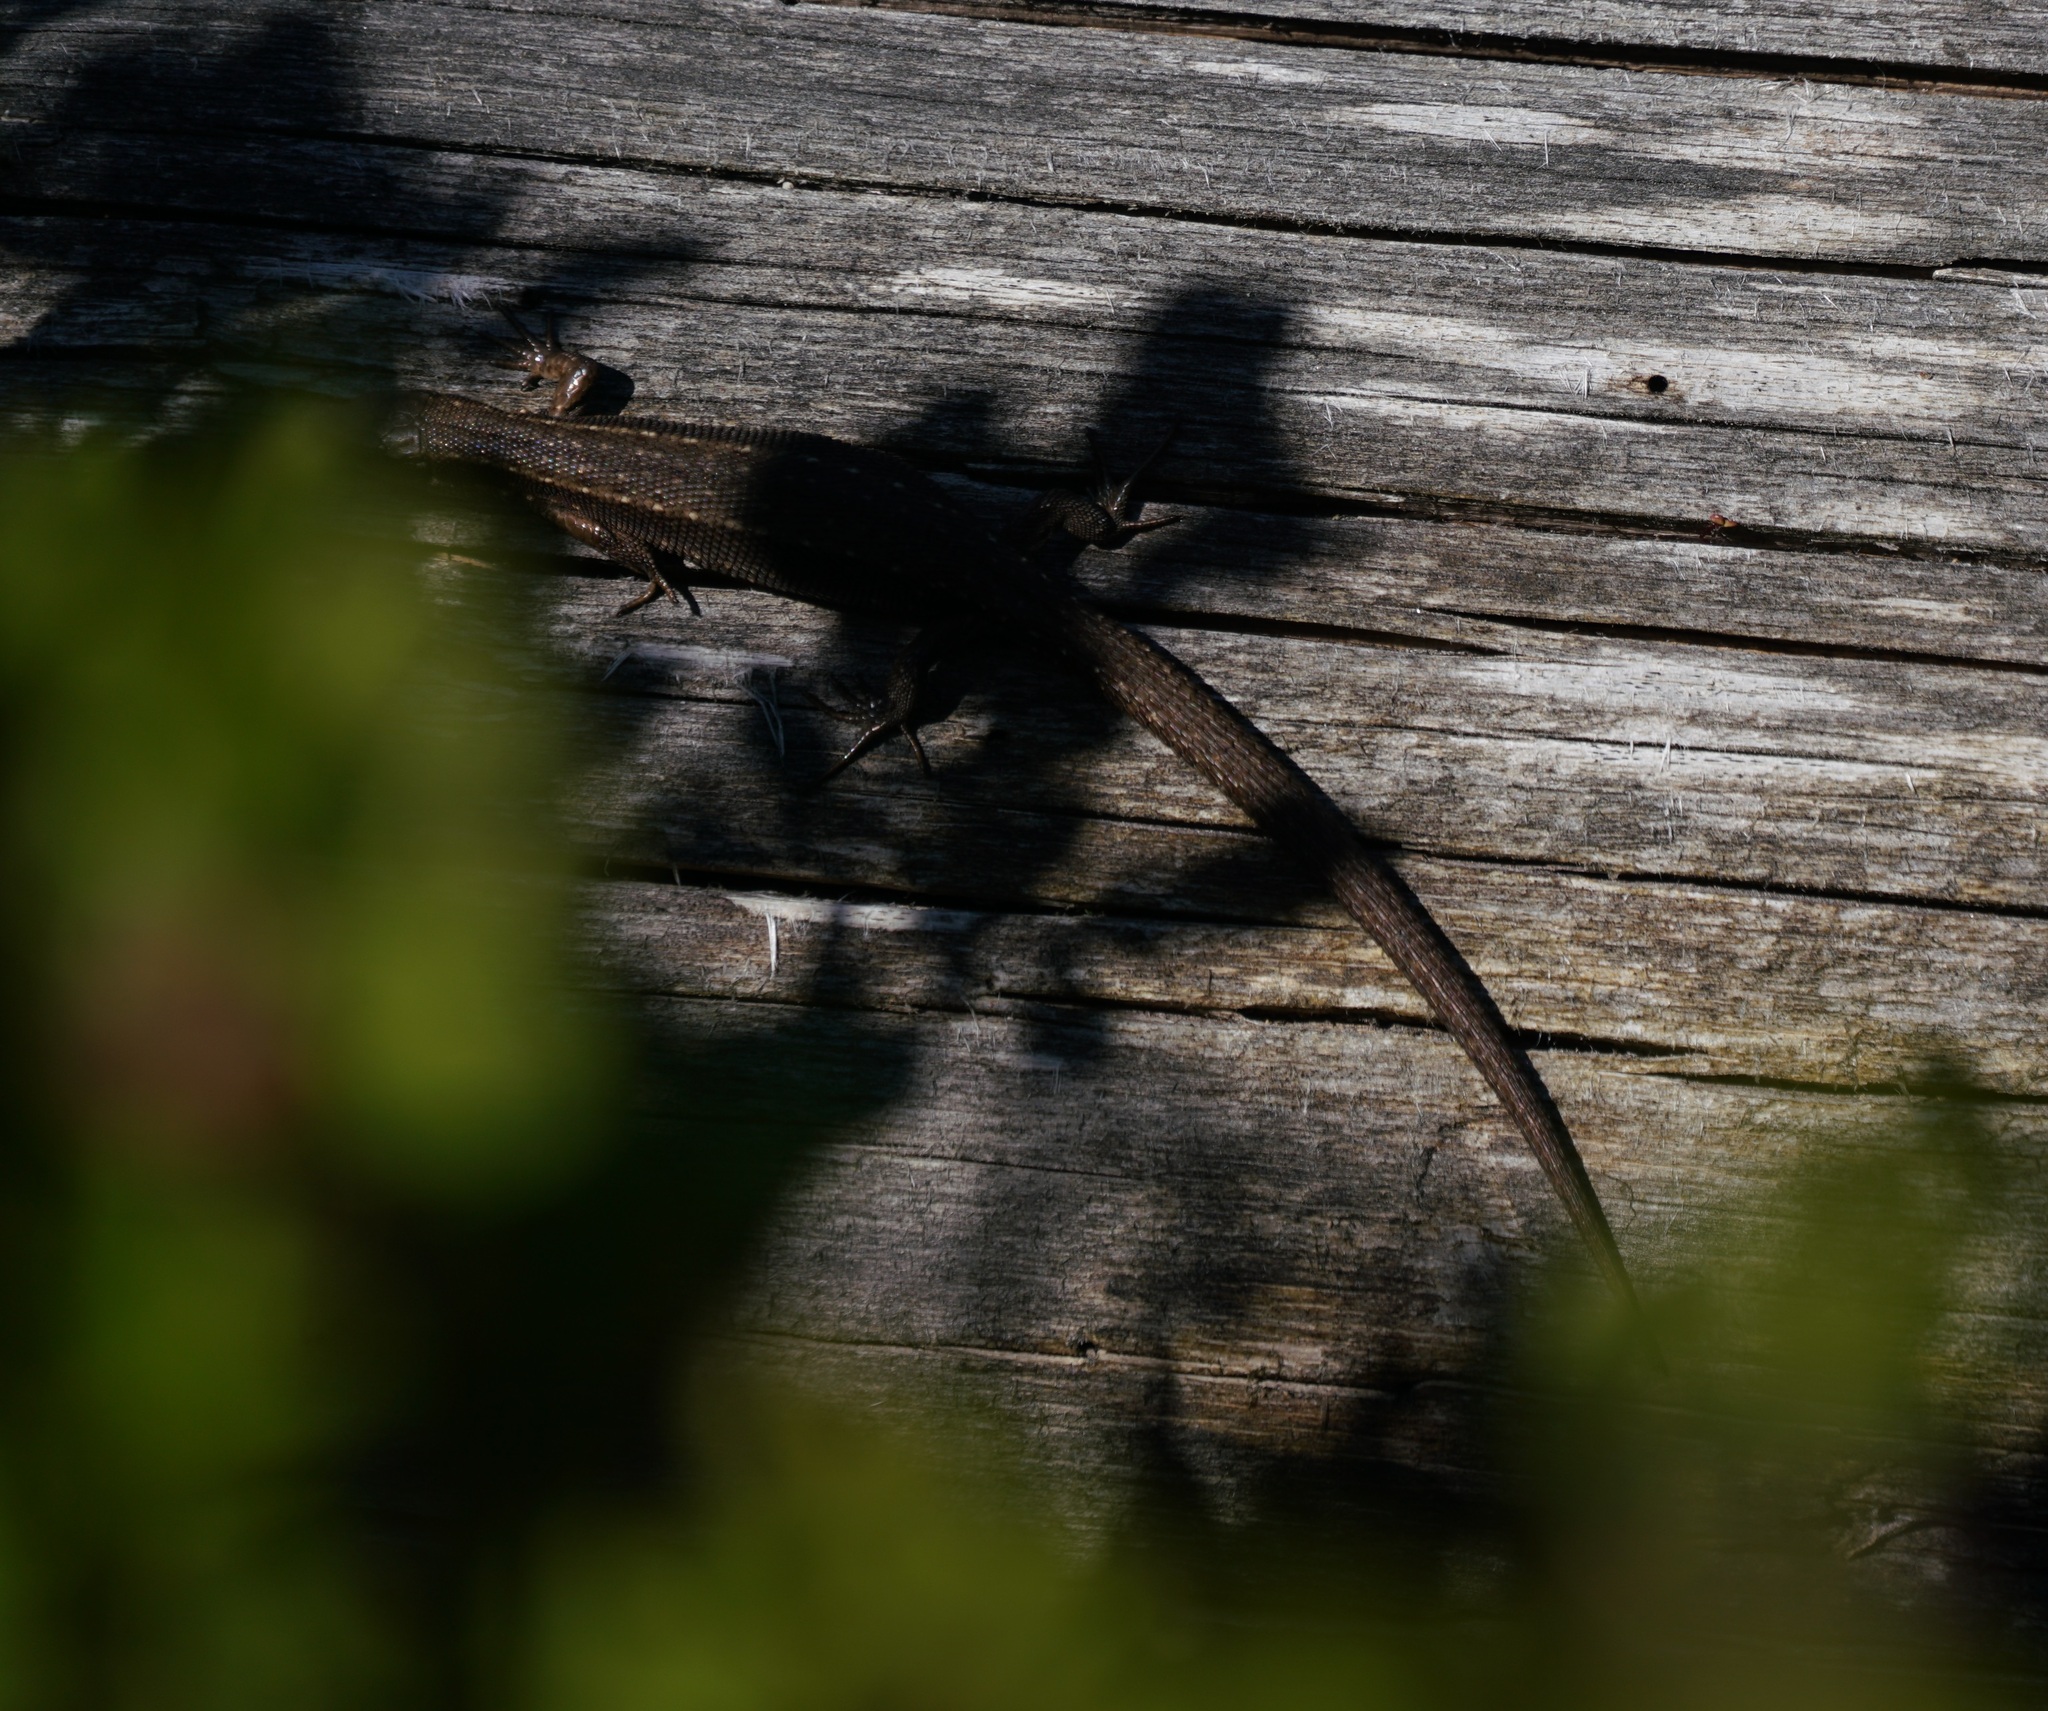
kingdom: Animalia
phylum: Chordata
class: Squamata
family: Lacertidae
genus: Zootoca
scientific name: Zootoca vivipara
